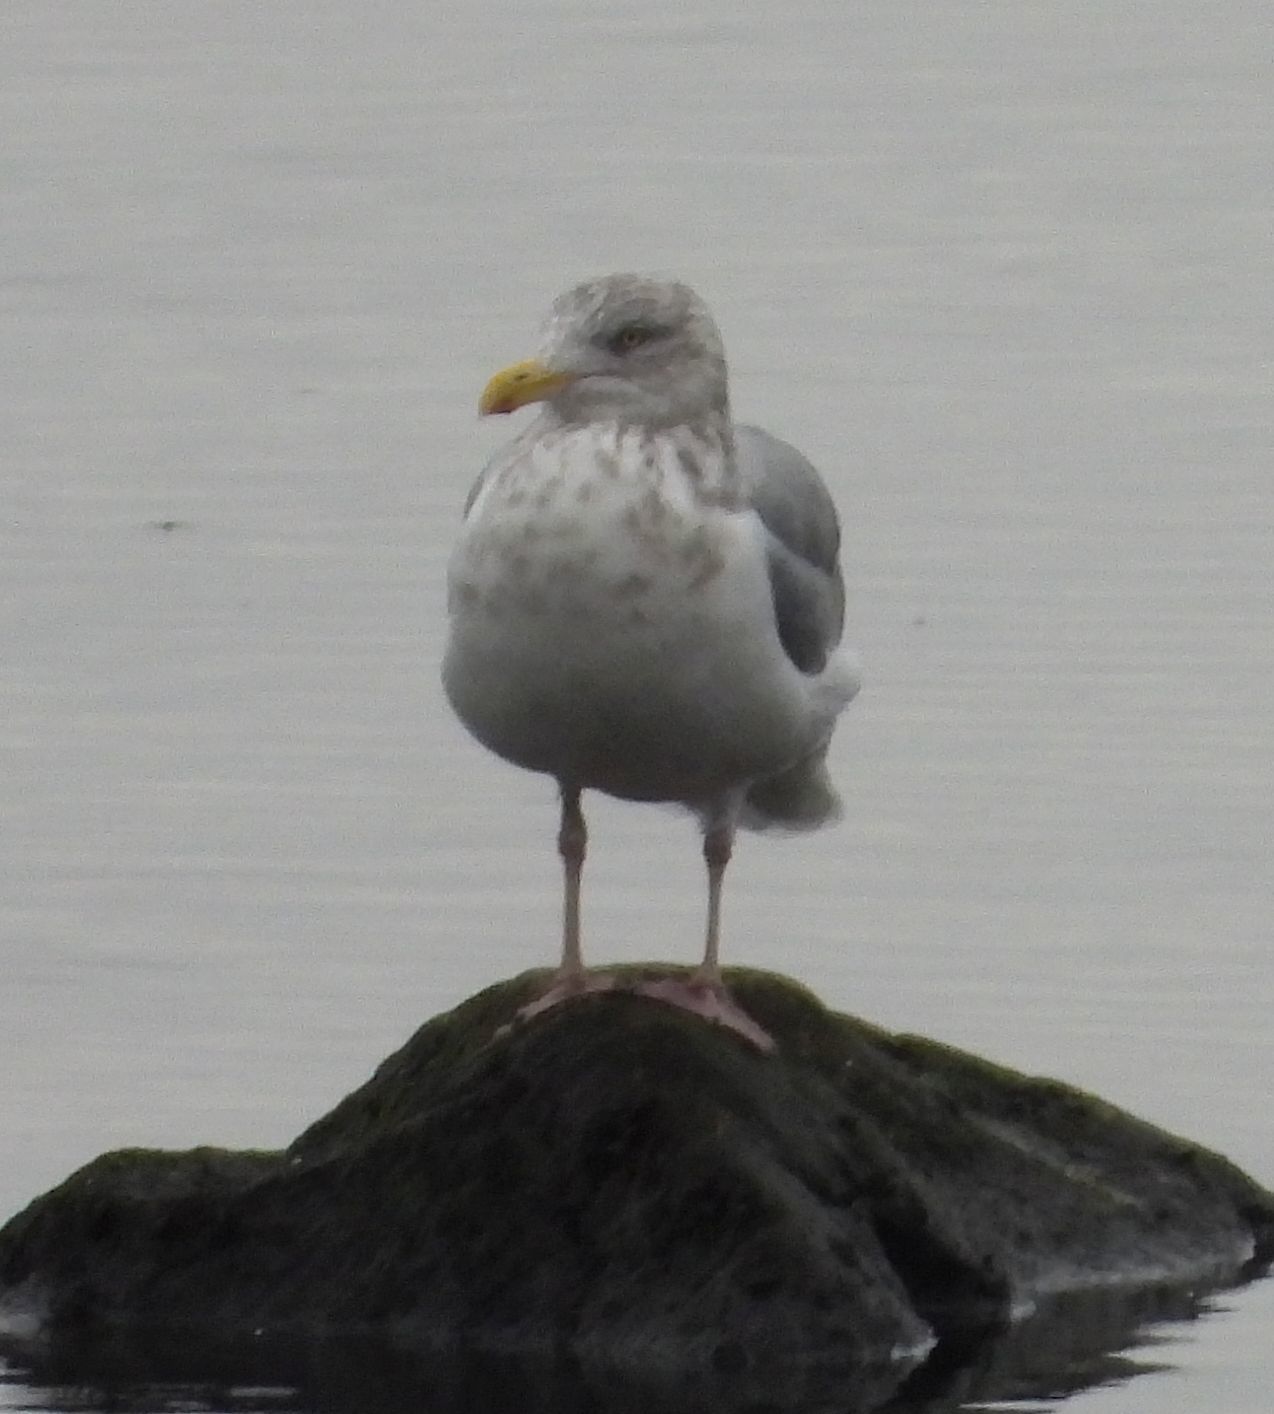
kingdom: Animalia
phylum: Chordata
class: Aves
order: Charadriiformes
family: Laridae
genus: Larus
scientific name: Larus argentatus
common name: Herring gull
